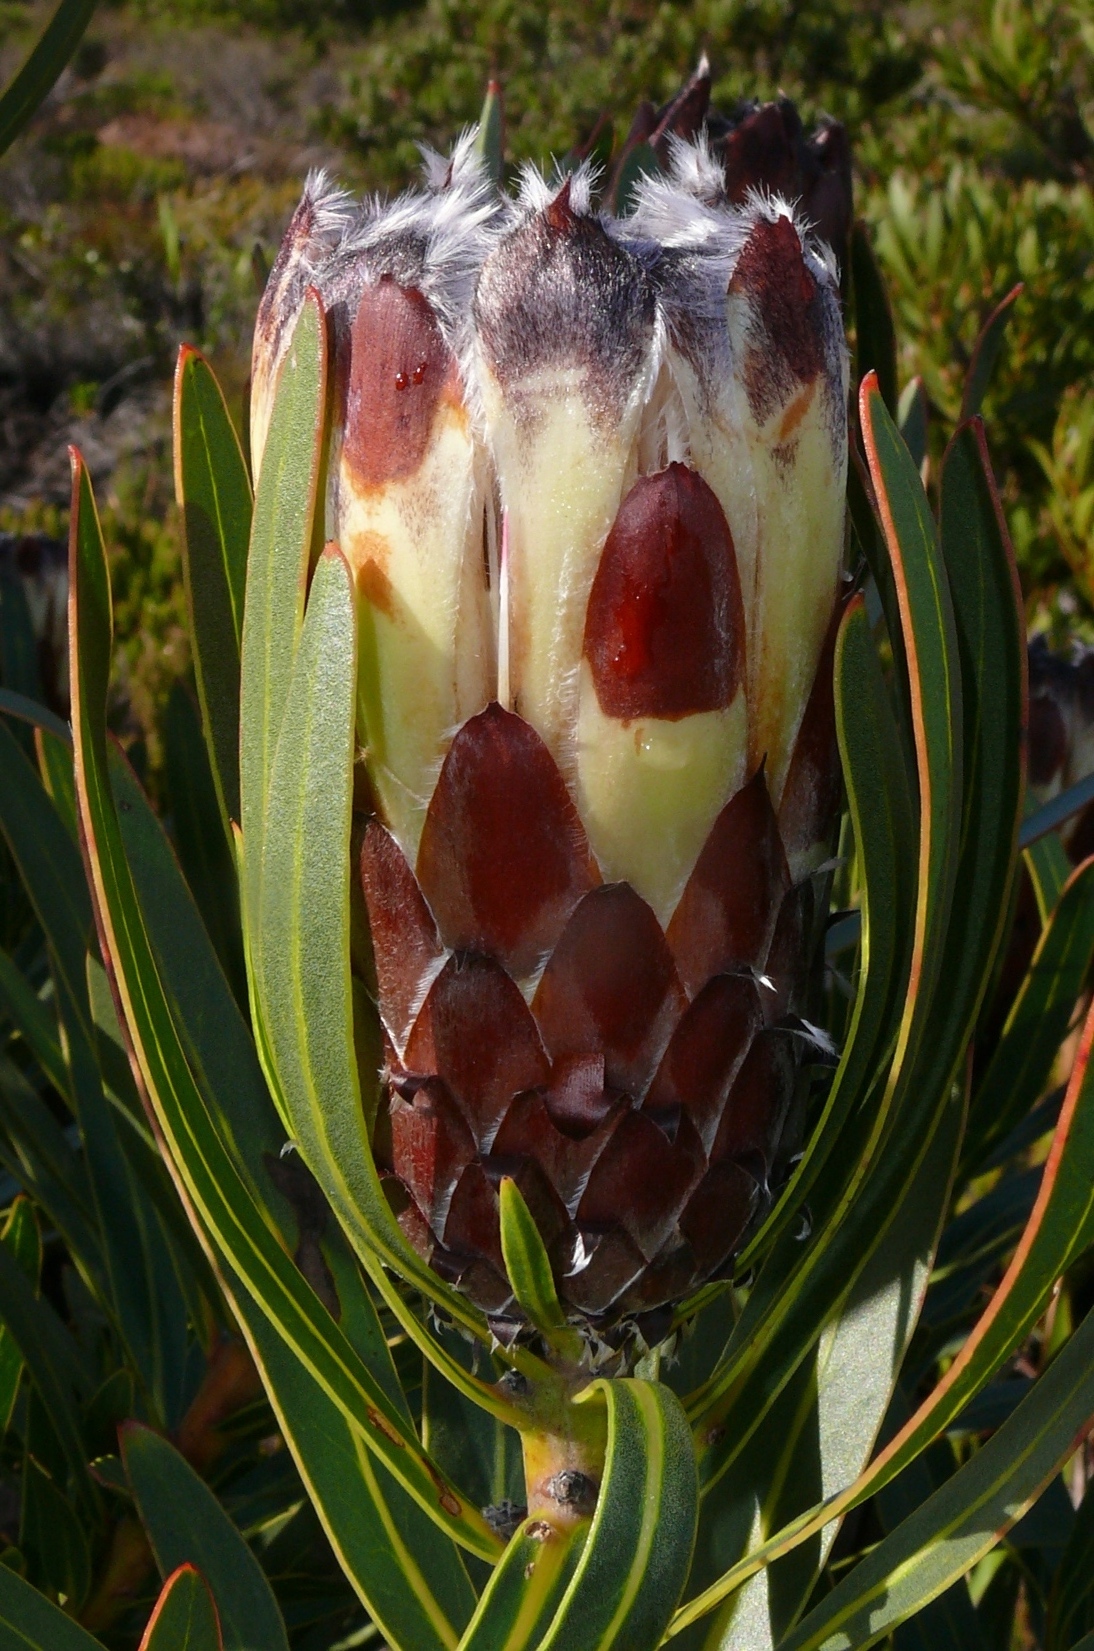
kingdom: Plantae
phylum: Tracheophyta
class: Magnoliopsida
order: Proteales
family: Proteaceae
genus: Protea
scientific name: Protea lepidocarpodendron
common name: Black-bearded protea
